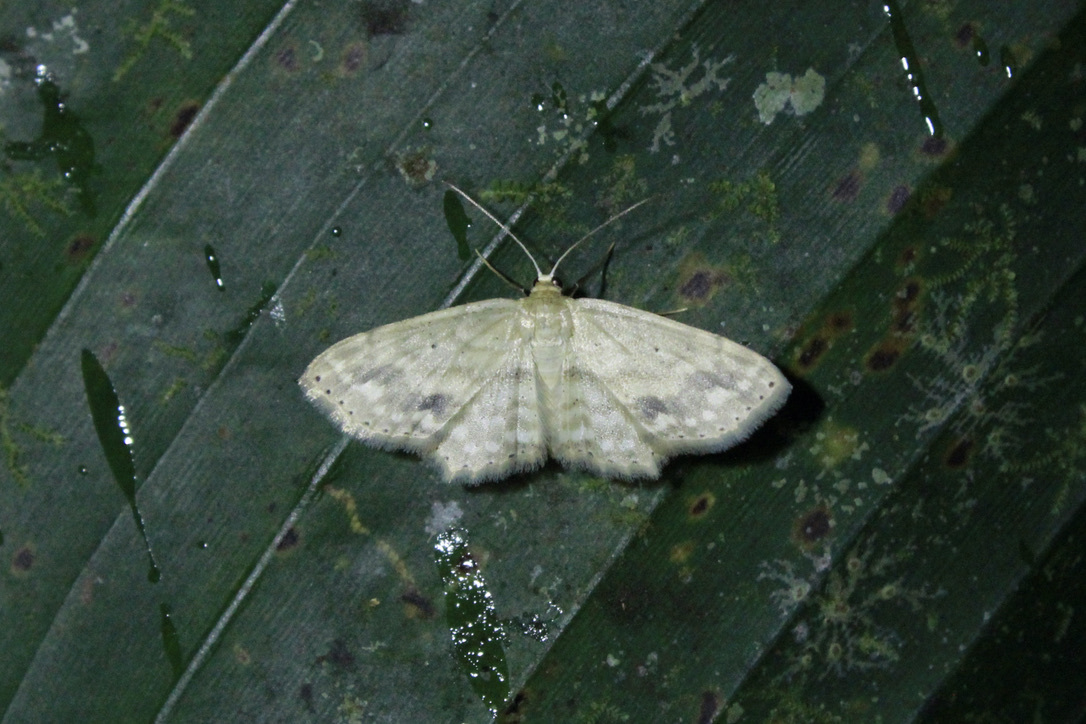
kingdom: Animalia
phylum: Arthropoda
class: Insecta
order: Lepidoptera
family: Geometridae
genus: Scopula
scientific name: Scopula subquadrata
